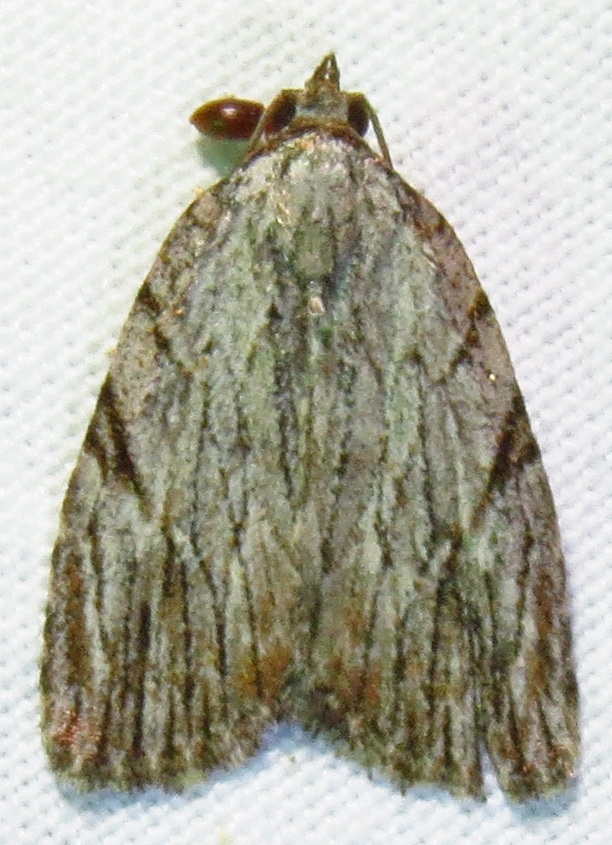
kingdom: Animalia
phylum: Arthropoda
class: Insecta
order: Lepidoptera
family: Noctuidae
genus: Balsa
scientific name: Balsa tristrigella
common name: Three-lined balsa moth
